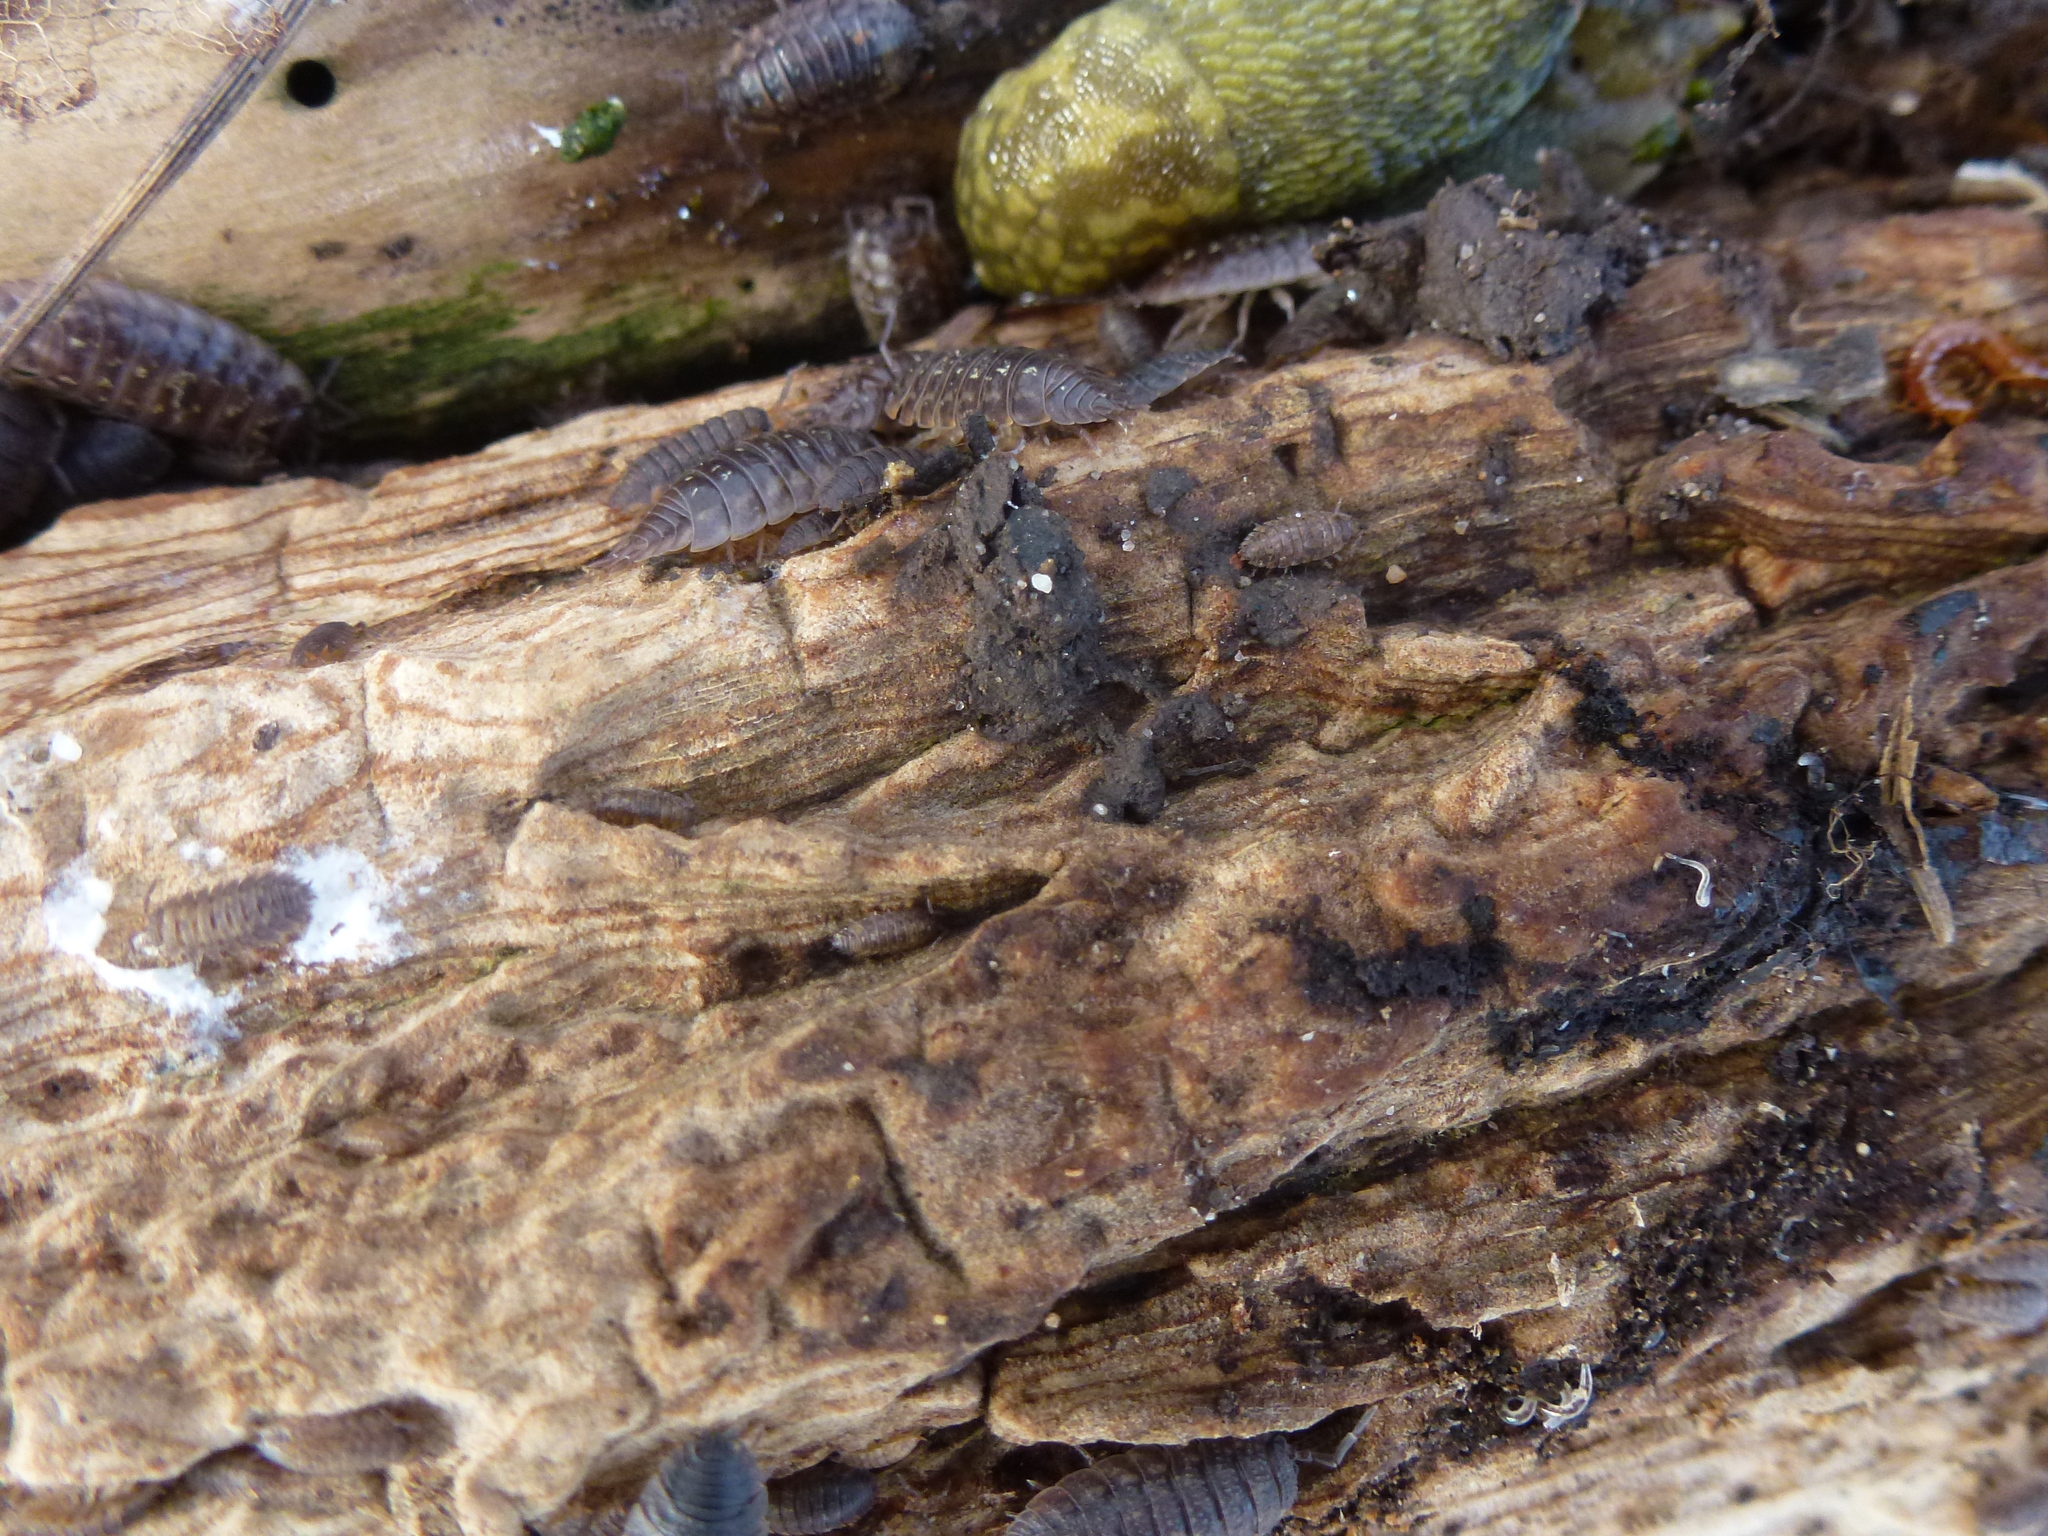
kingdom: Animalia
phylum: Arthropoda
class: Malacostraca
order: Isopoda
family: Oniscidae
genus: Oniscus
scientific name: Oniscus asellus
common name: Common shiny woodlouse
